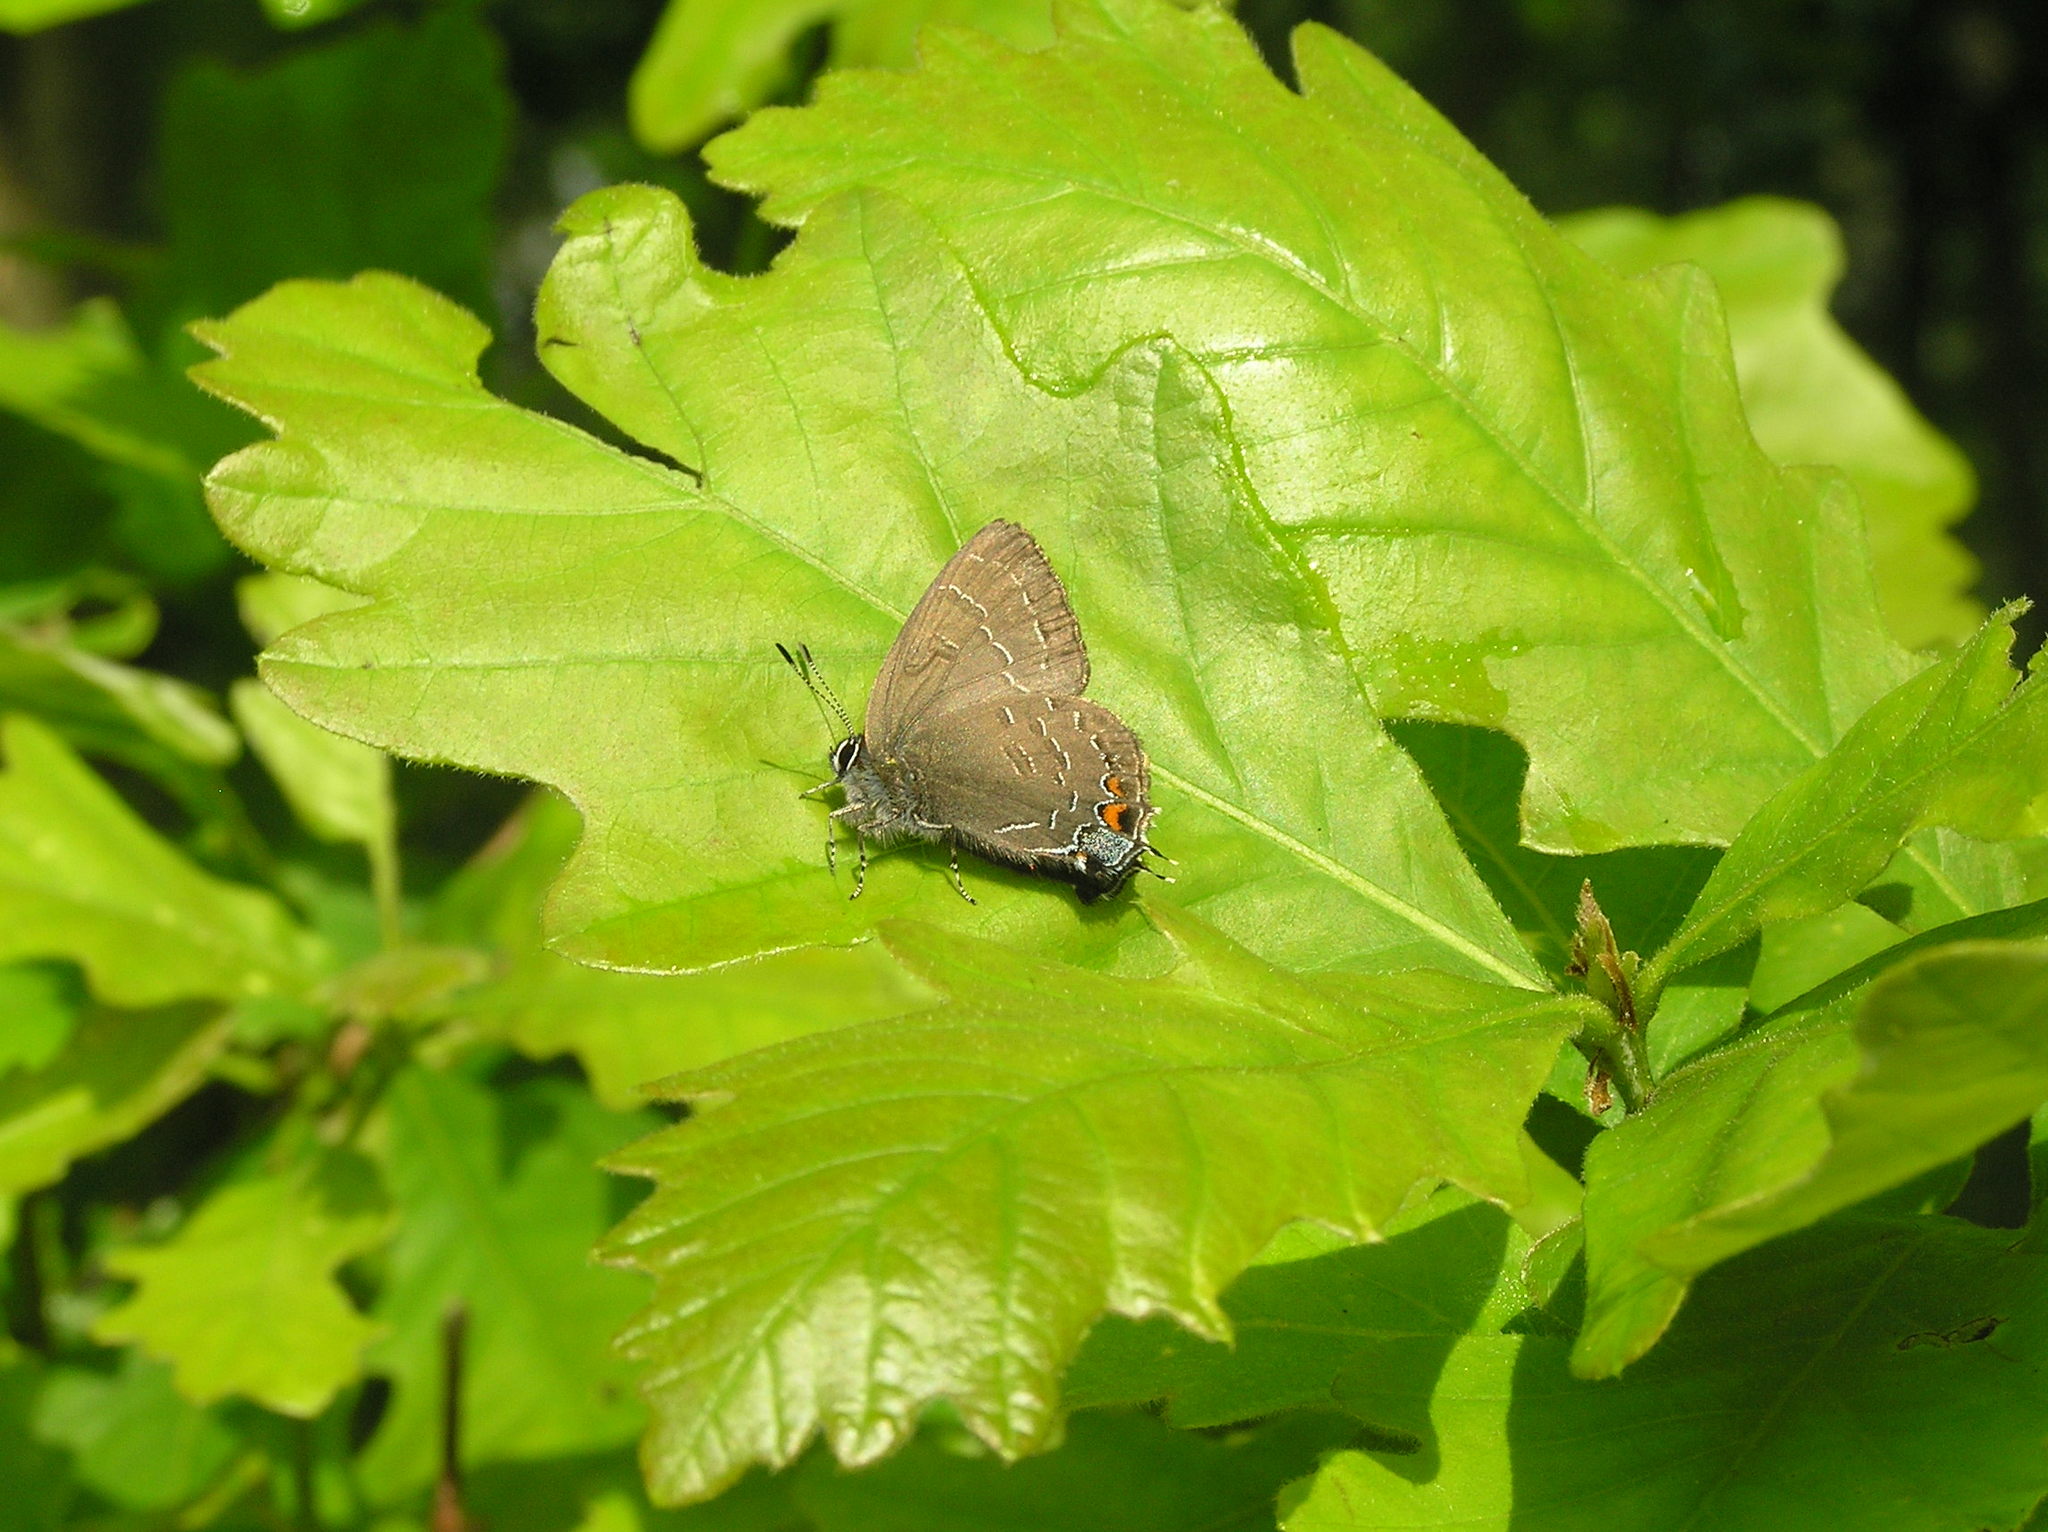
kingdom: Animalia
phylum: Arthropoda
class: Insecta
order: Lepidoptera
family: Lycaenidae
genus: Satyrium
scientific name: Satyrium calanus
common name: Banded hairstreak
